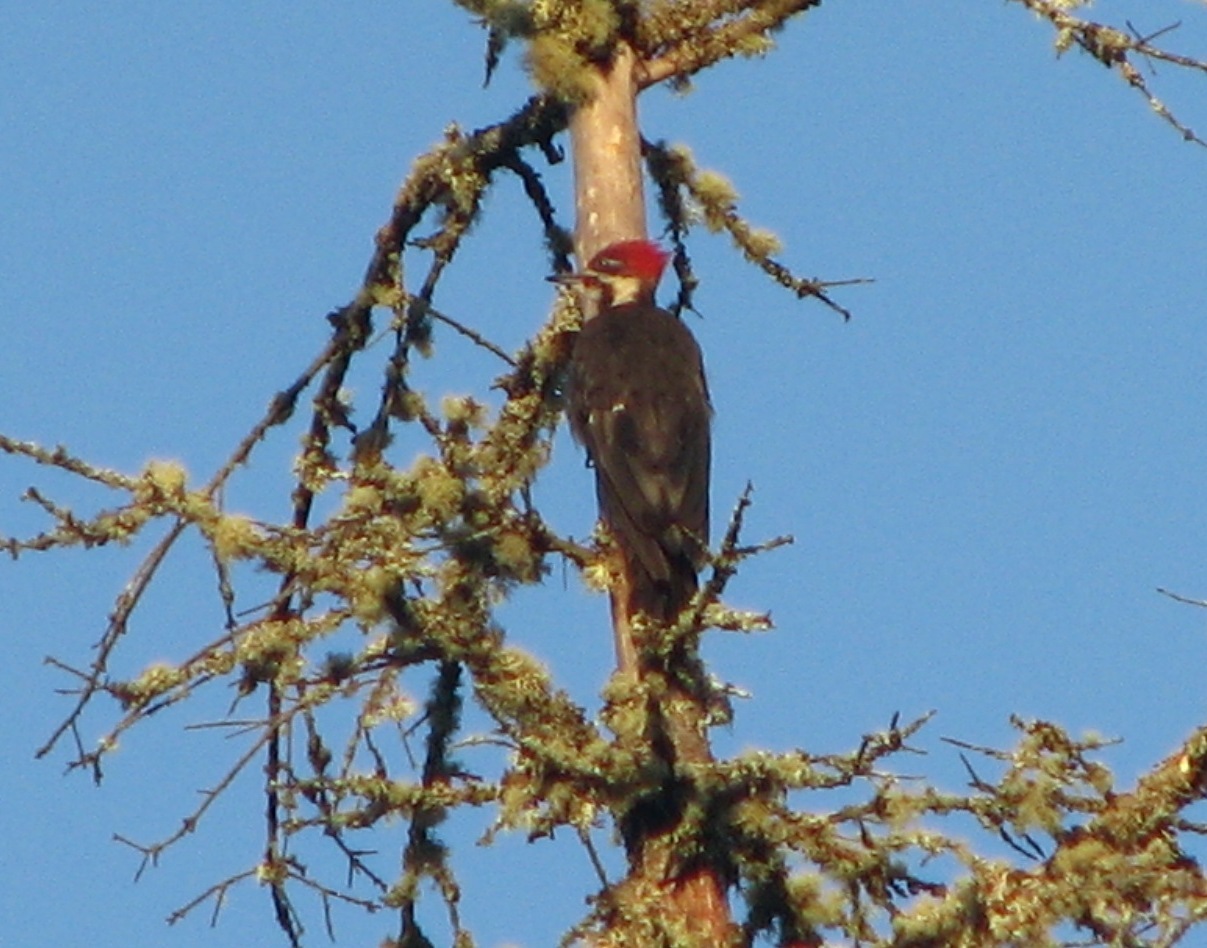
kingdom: Animalia
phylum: Chordata
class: Aves
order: Piciformes
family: Picidae
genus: Dryocopus
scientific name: Dryocopus pileatus
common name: Pileated woodpecker
